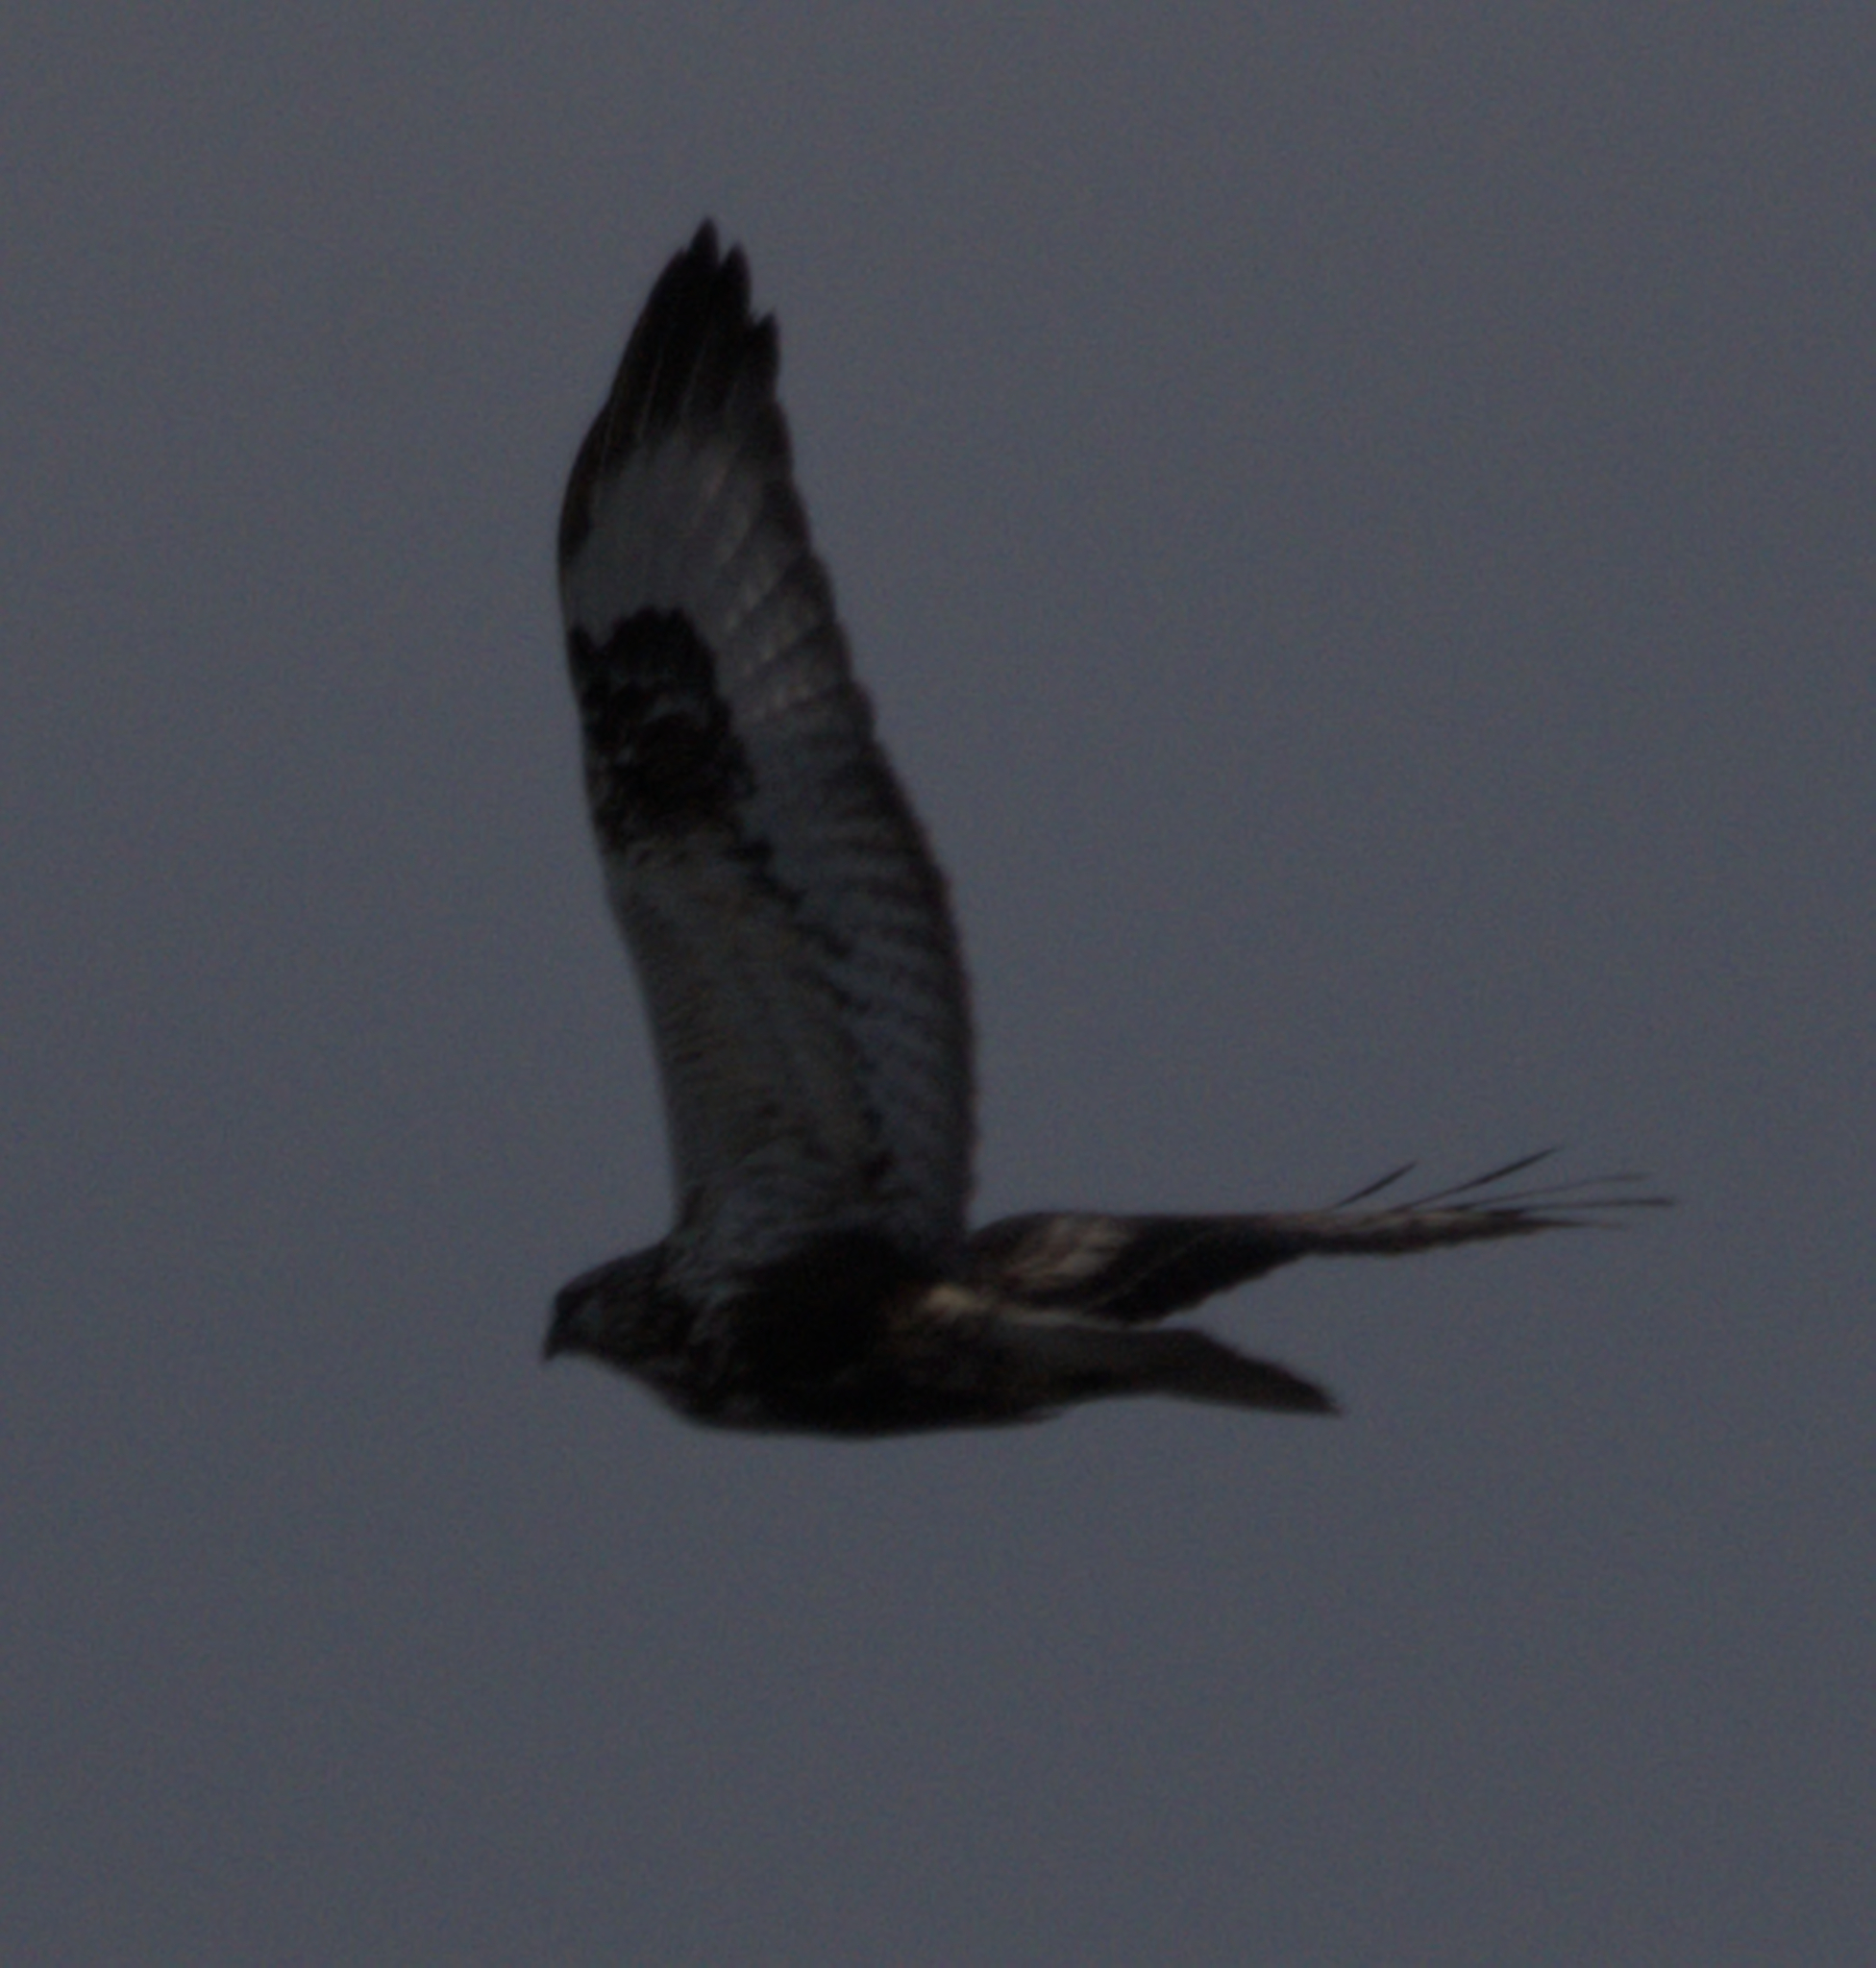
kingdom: Animalia
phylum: Chordata
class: Aves
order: Accipitriformes
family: Accipitridae
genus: Buteo
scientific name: Buteo lagopus
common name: Rough-legged buzzard
